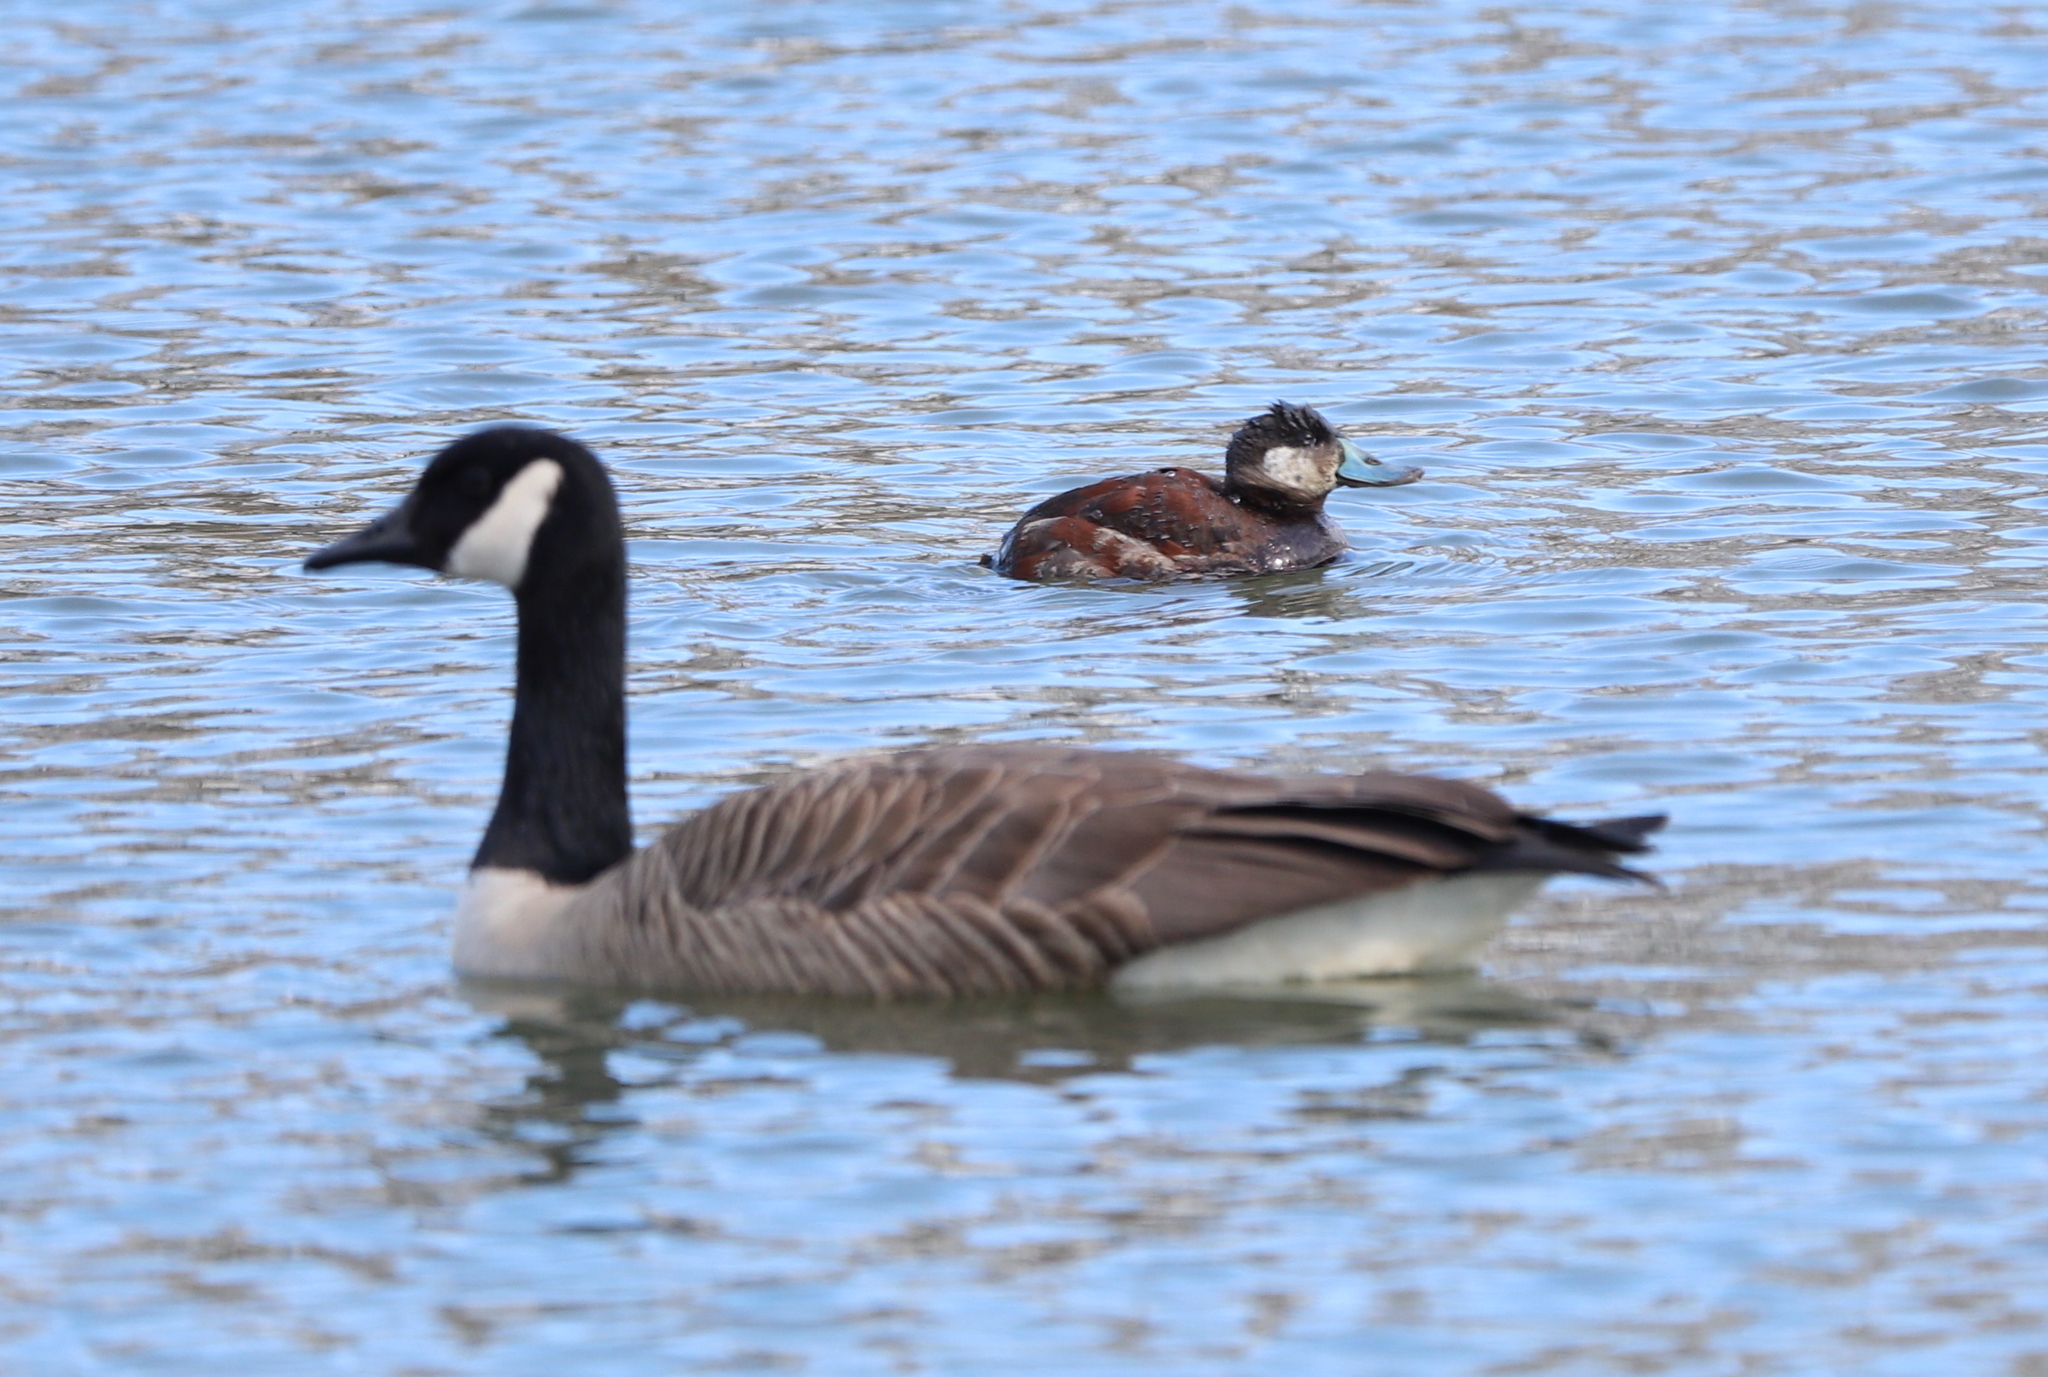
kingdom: Animalia
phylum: Chordata
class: Aves
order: Anseriformes
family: Anatidae
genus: Oxyura
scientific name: Oxyura jamaicensis
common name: Ruddy duck
